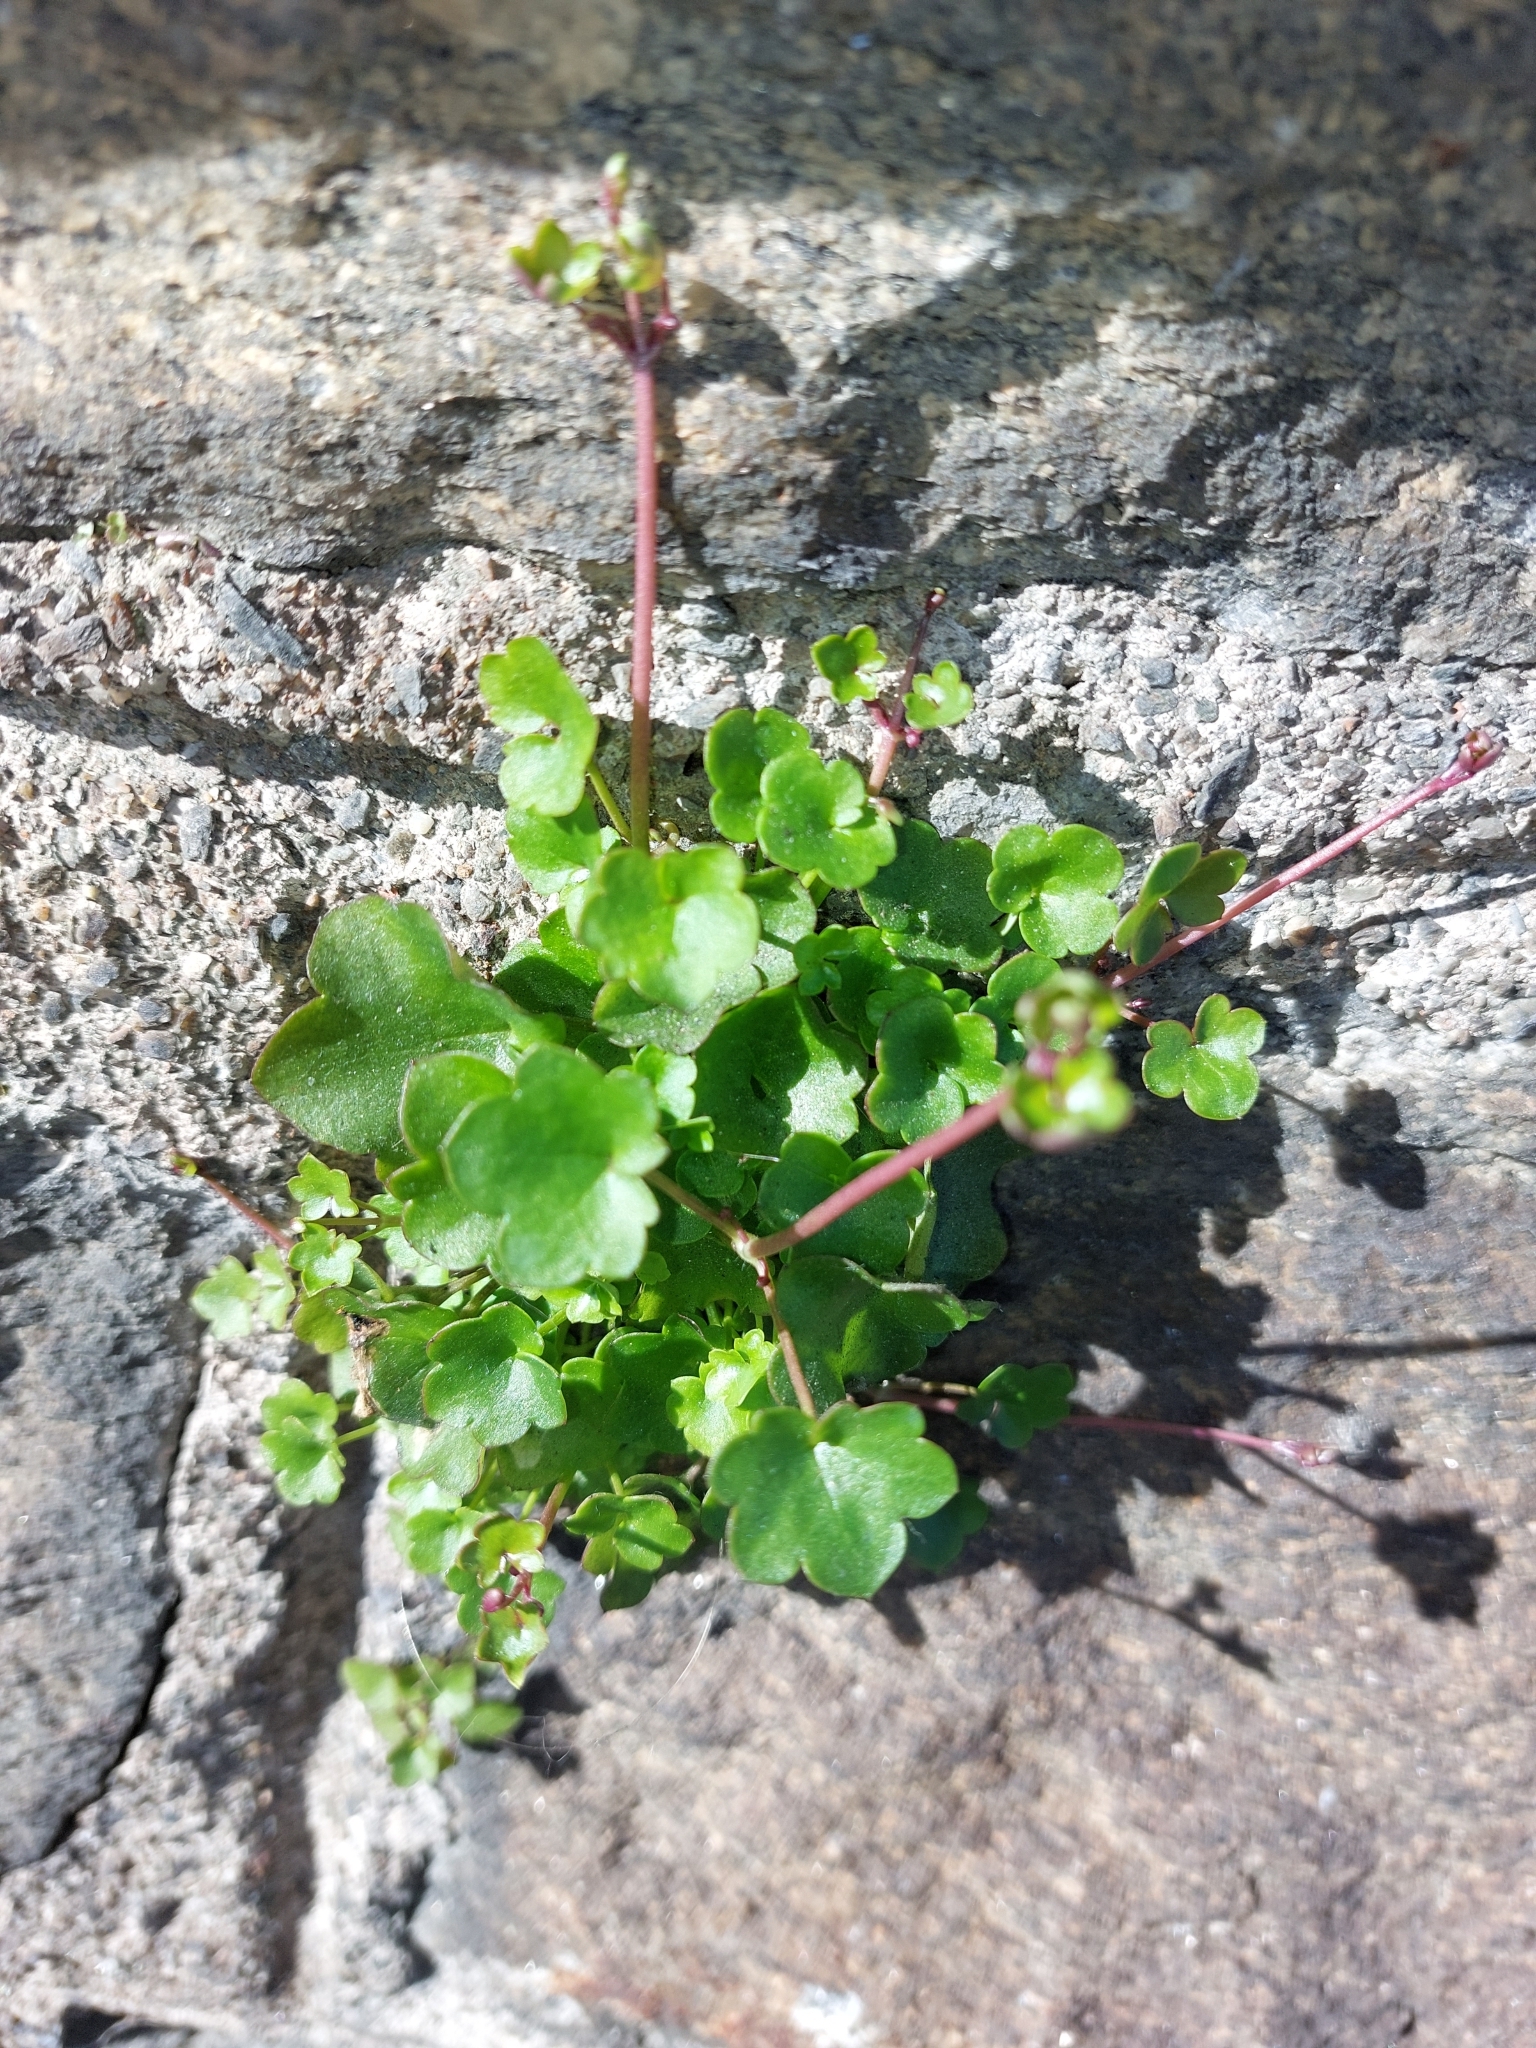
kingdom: Plantae
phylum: Tracheophyta
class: Magnoliopsida
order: Lamiales
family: Plantaginaceae
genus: Cymbalaria
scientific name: Cymbalaria muralis
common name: Ivy-leaved toadflax
